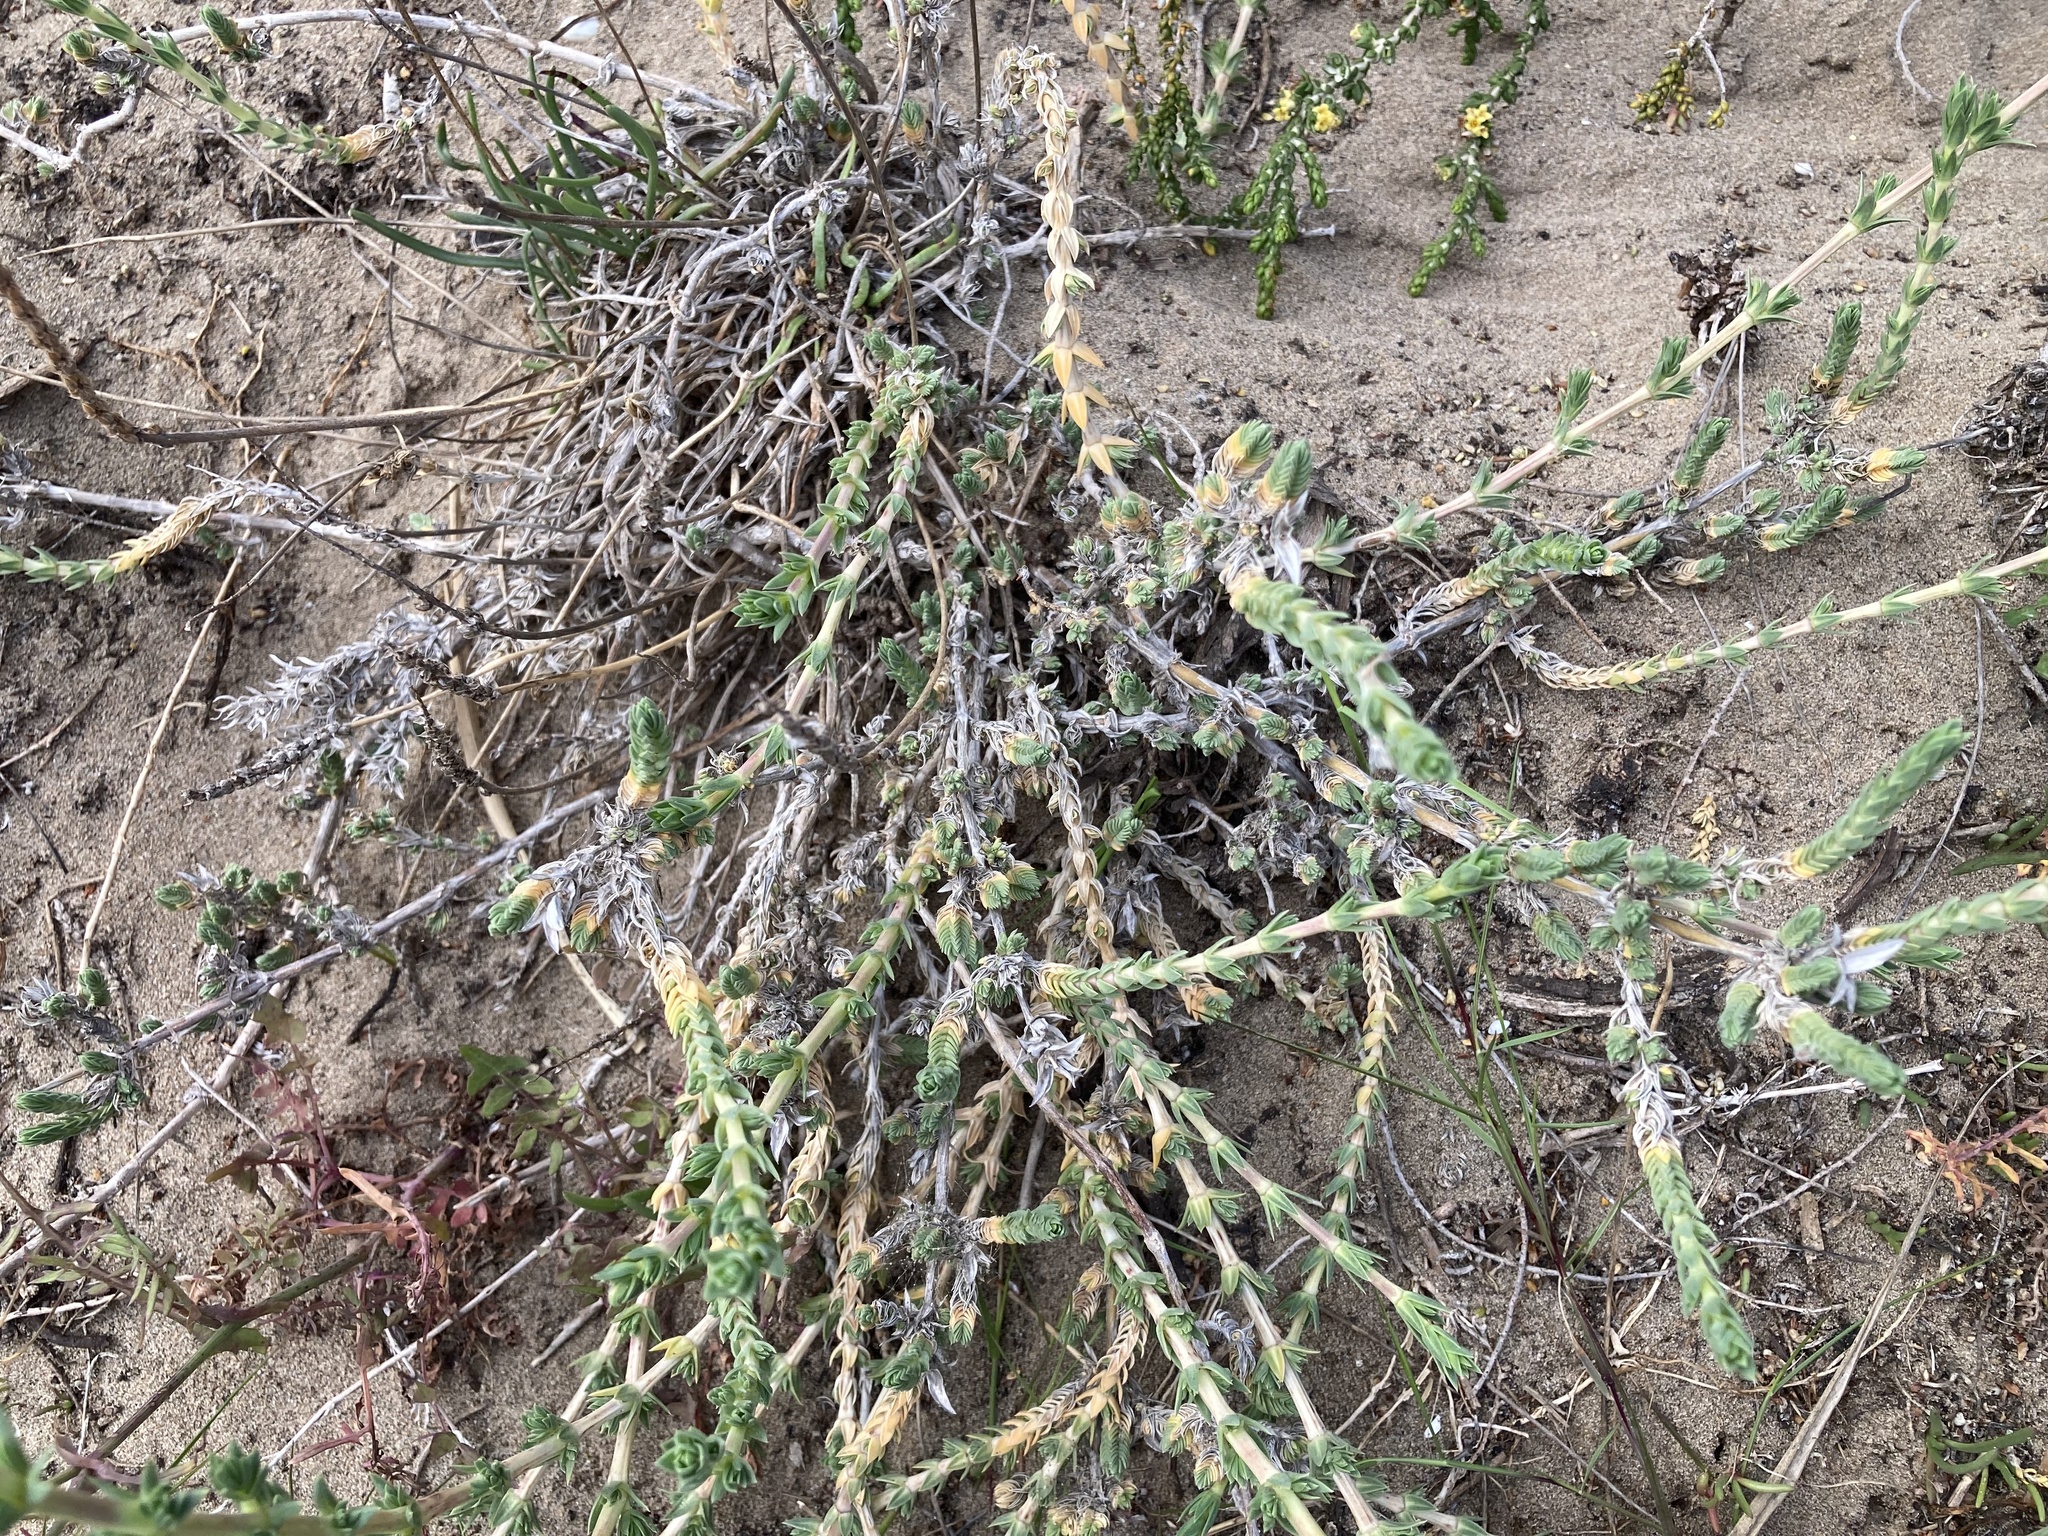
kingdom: Plantae
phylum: Tracheophyta
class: Magnoliopsida
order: Gentianales
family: Rubiaceae
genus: Crucianella
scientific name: Crucianella maritima
